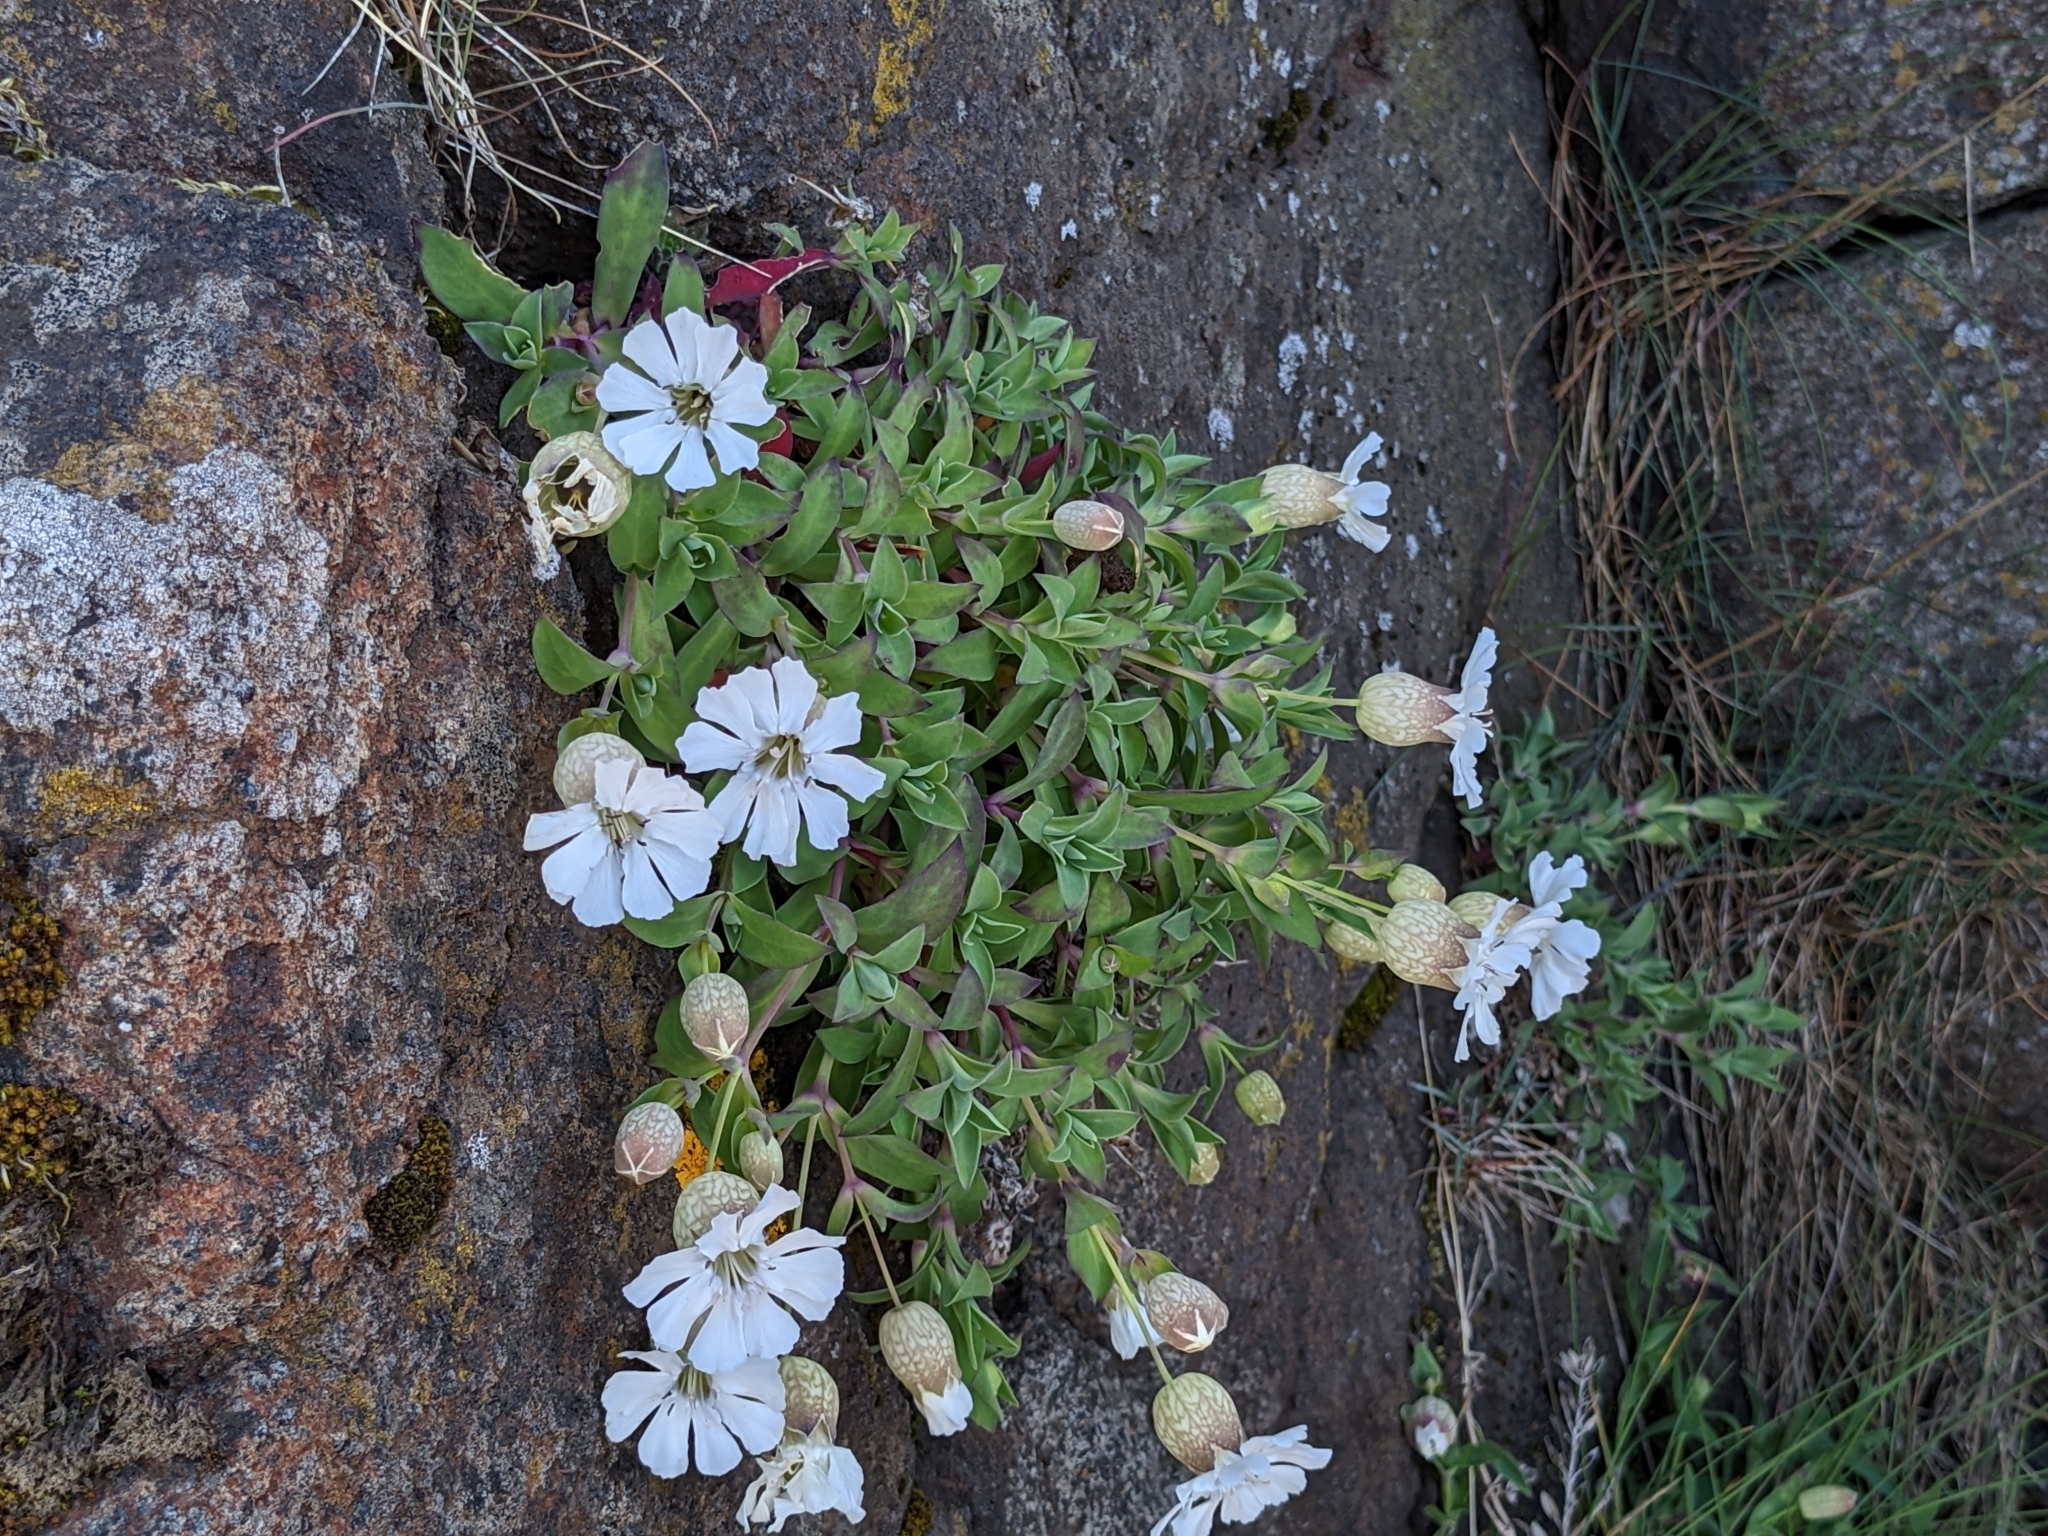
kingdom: Plantae
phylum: Tracheophyta
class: Magnoliopsida
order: Caryophyllales
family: Caryophyllaceae
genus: Silene
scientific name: Silene uniflora
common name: Sea campion
